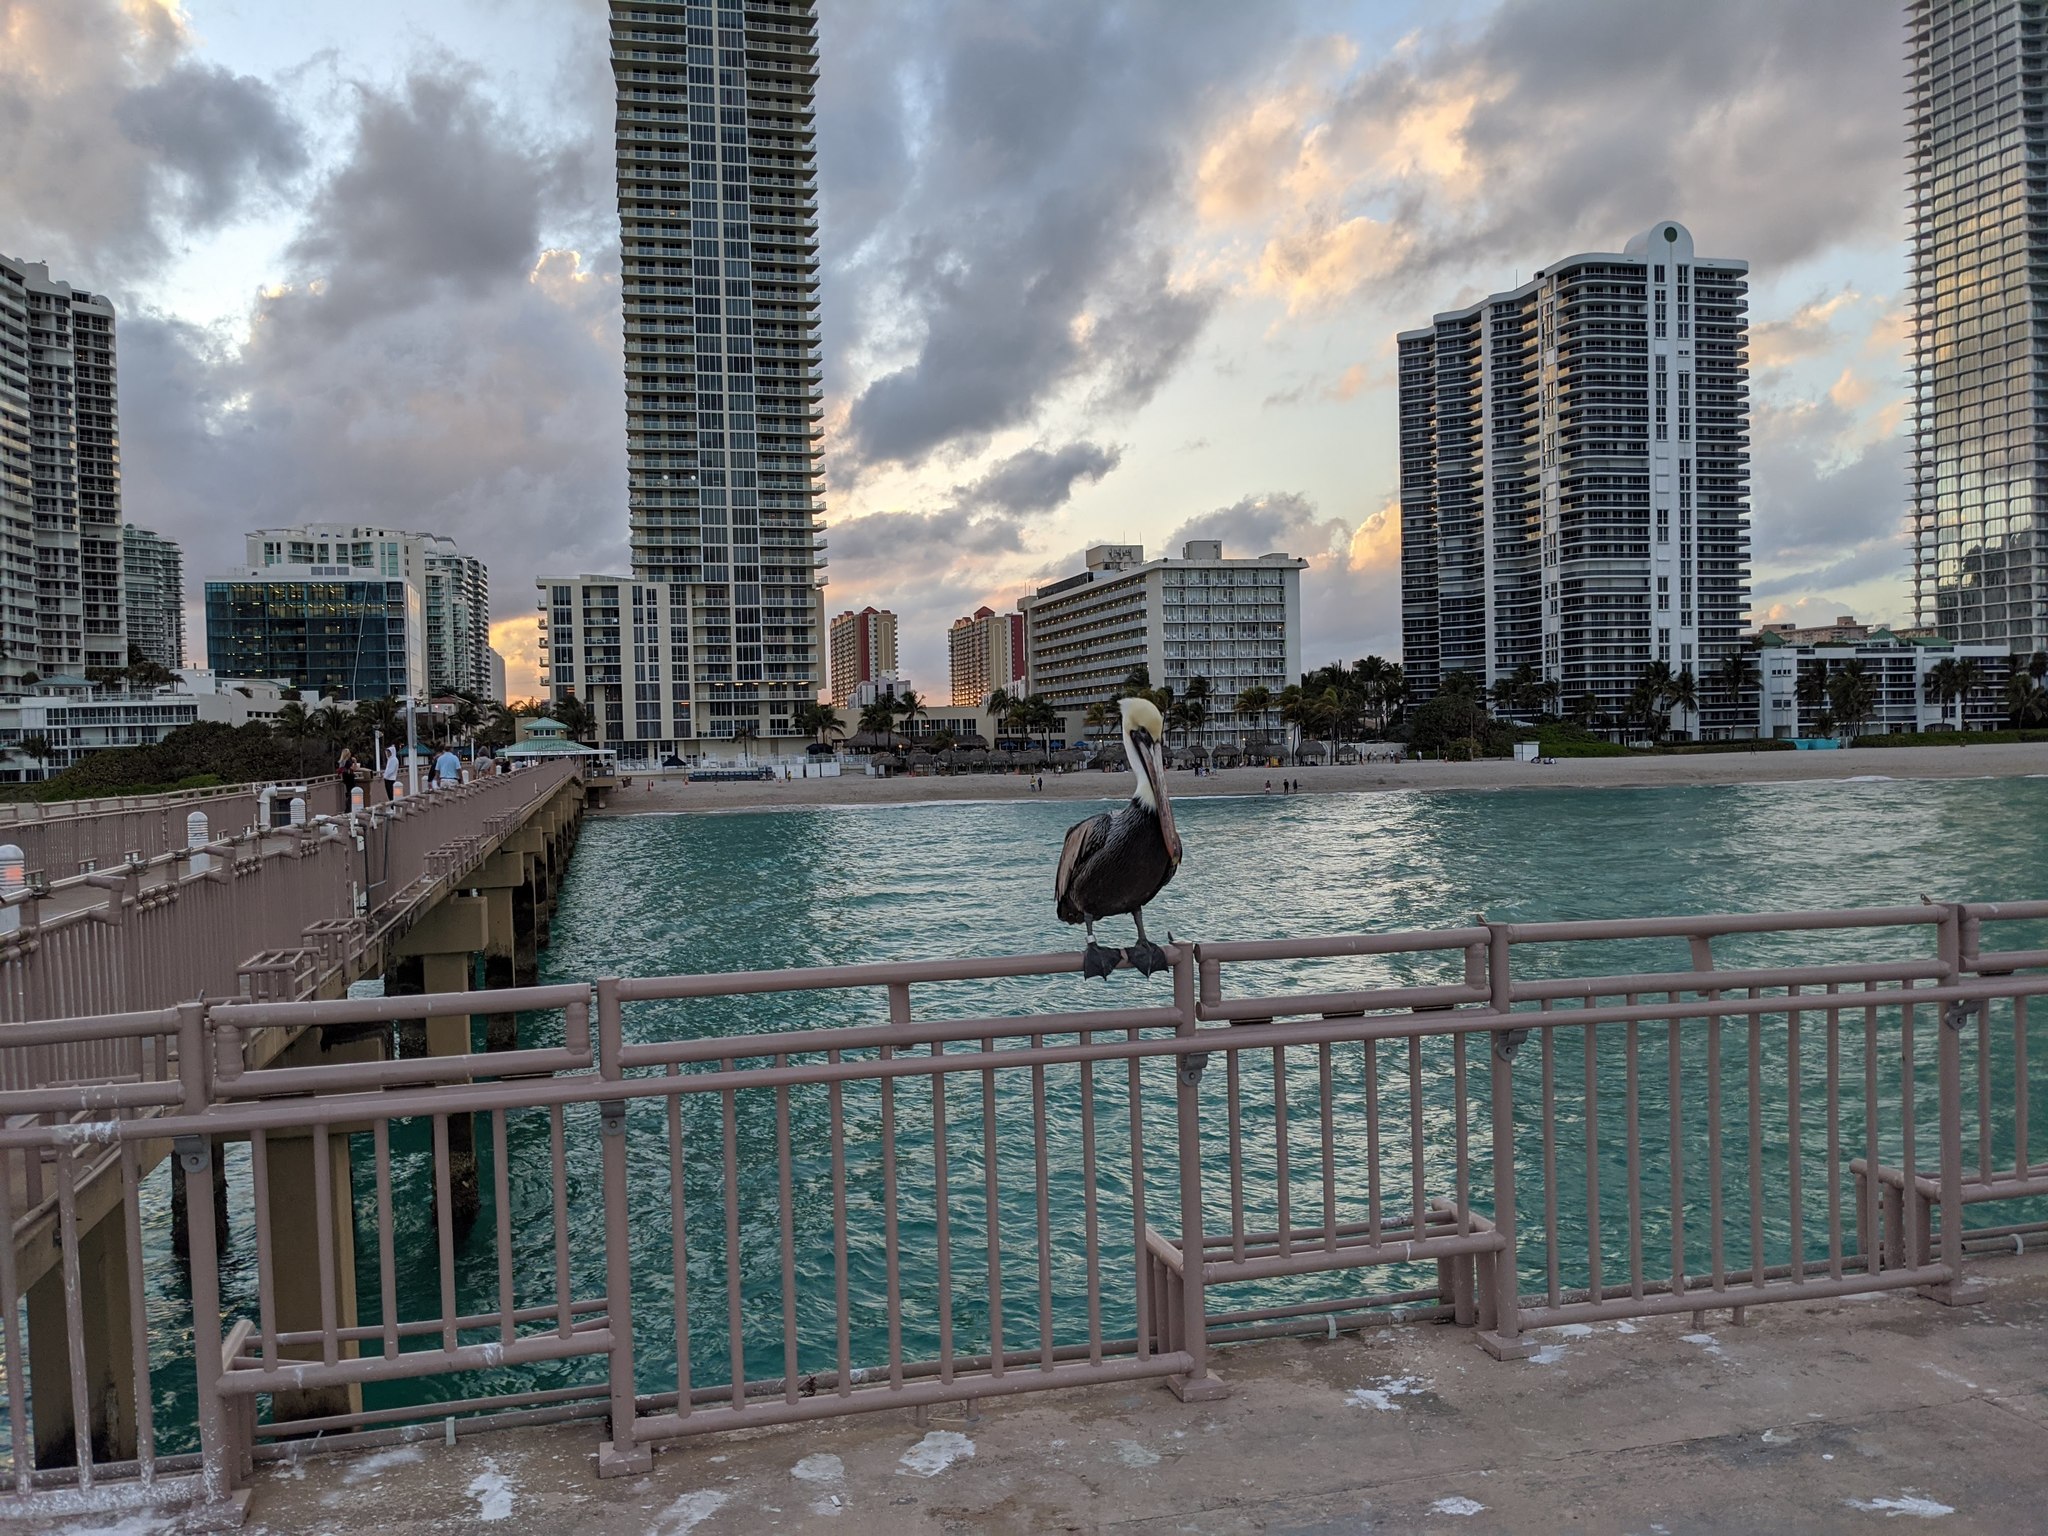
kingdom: Animalia
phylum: Chordata
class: Aves
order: Pelecaniformes
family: Pelecanidae
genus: Pelecanus
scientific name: Pelecanus occidentalis
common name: Brown pelican
